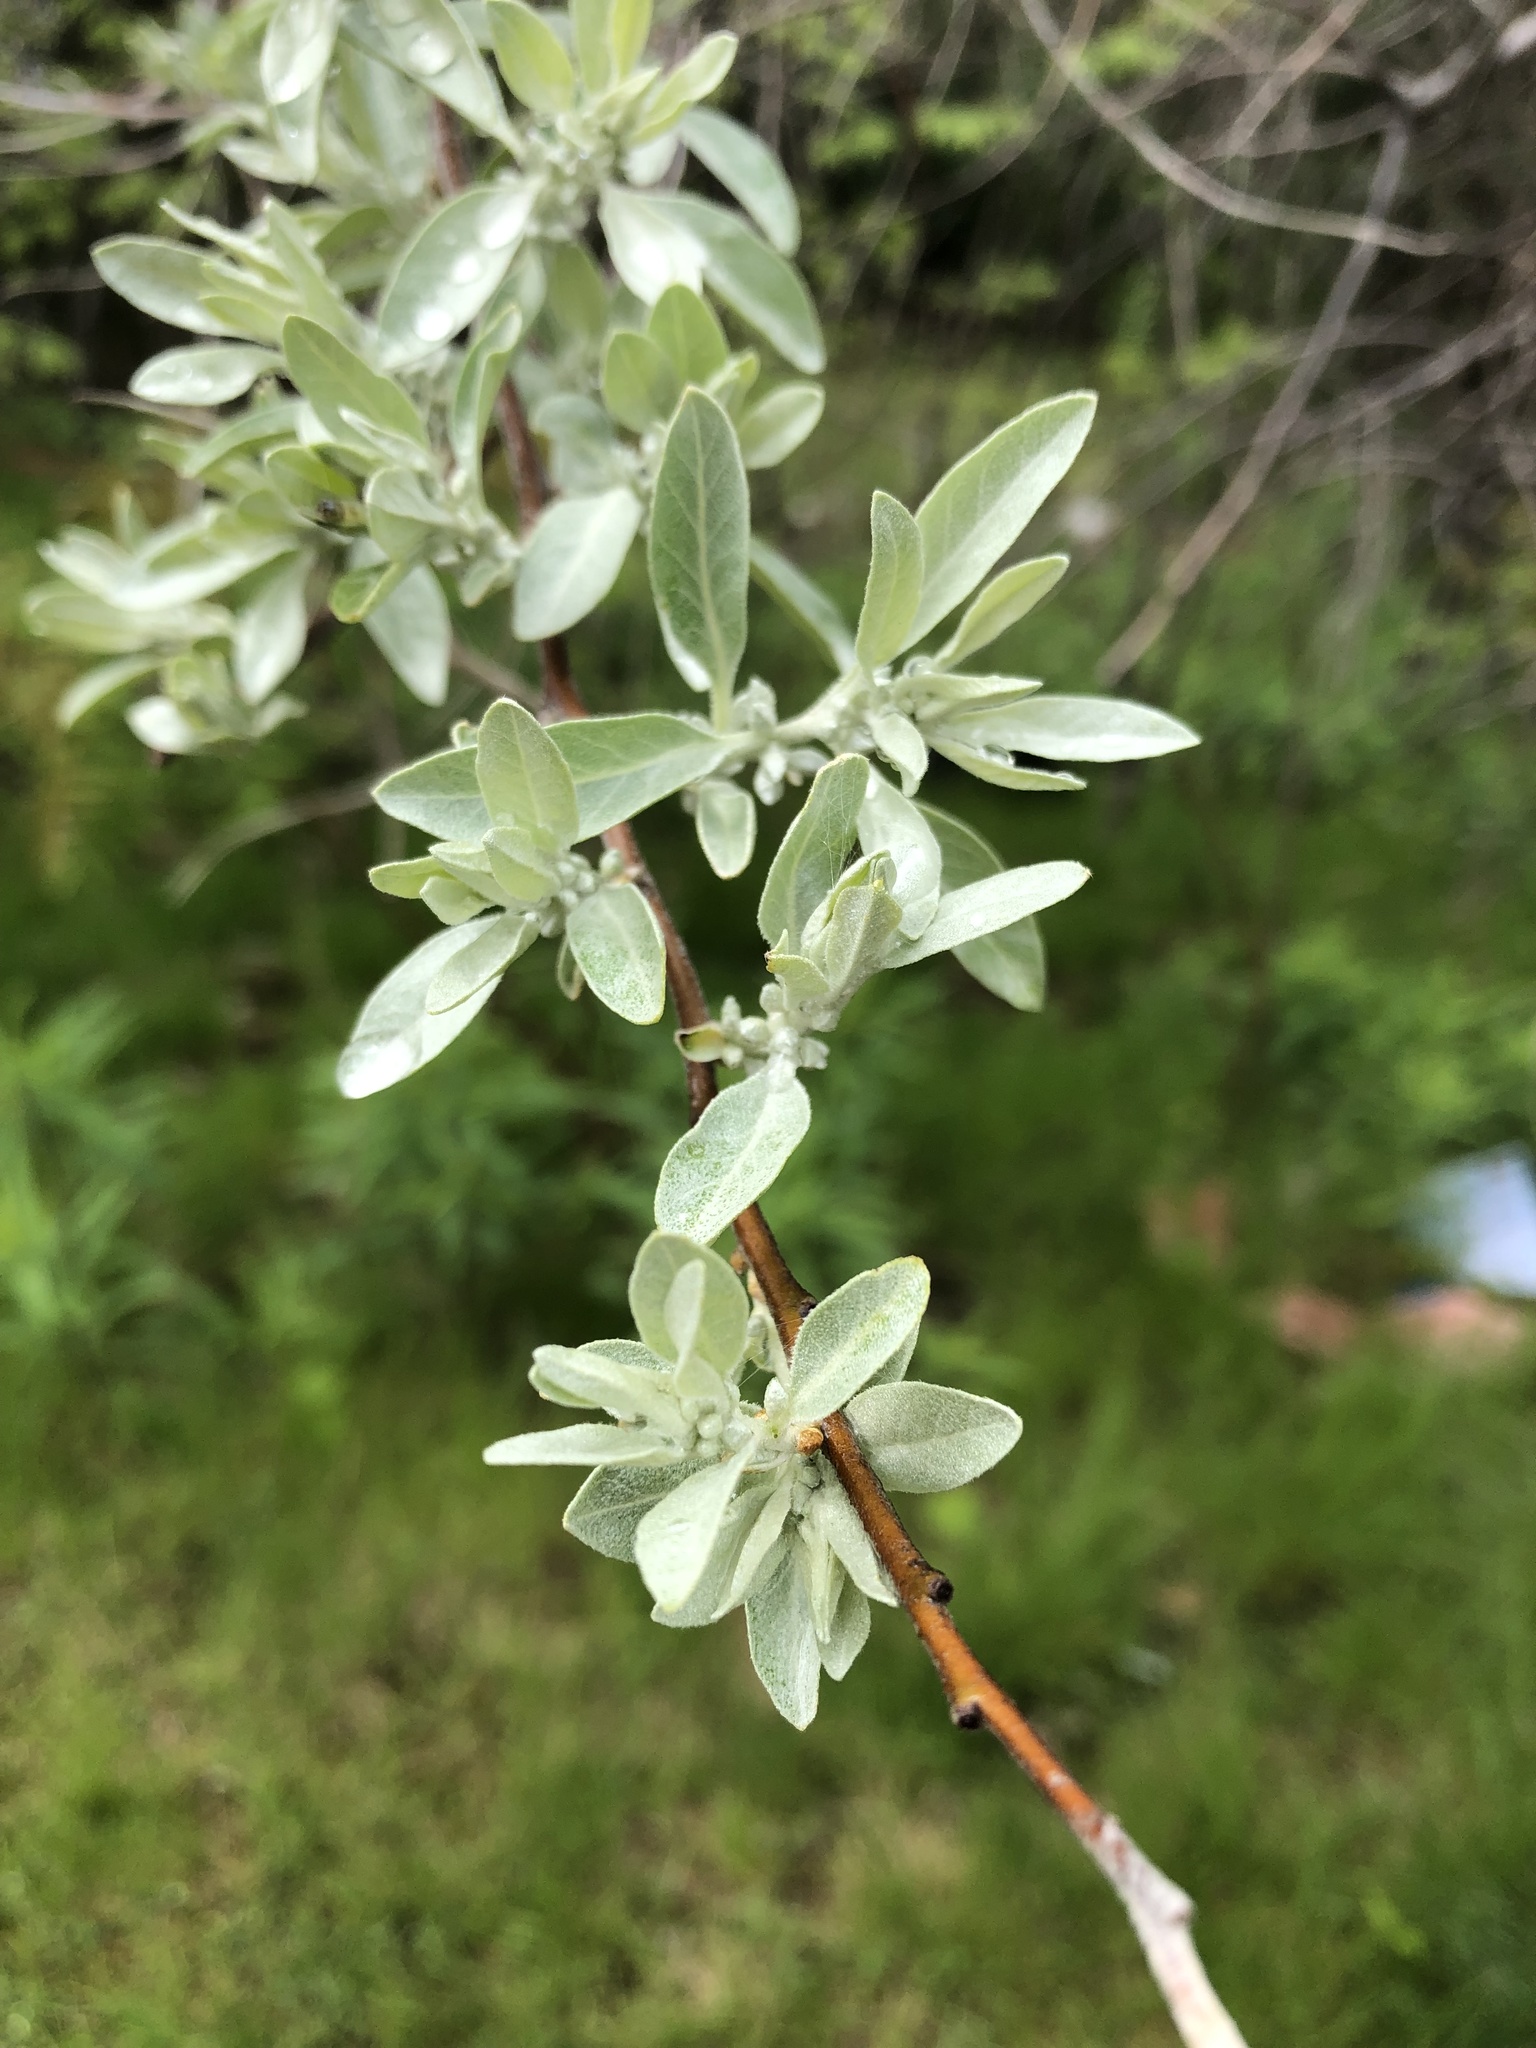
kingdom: Plantae
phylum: Tracheophyta
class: Magnoliopsida
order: Rosales
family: Elaeagnaceae
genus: Elaeagnus
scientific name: Elaeagnus umbellata
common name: Autumn olive
